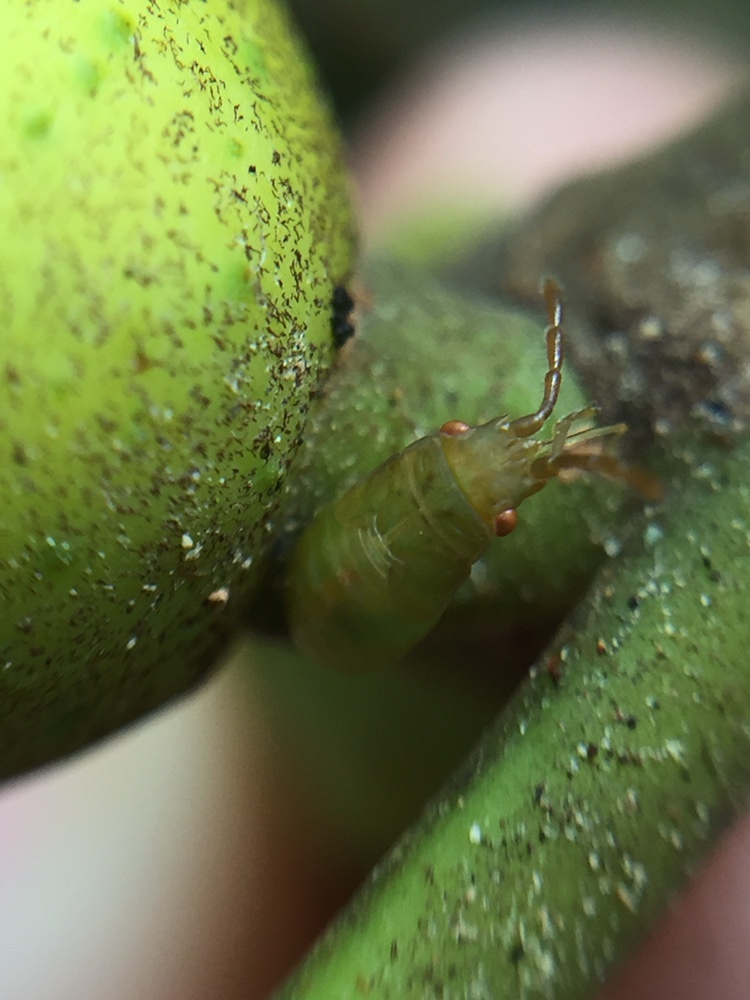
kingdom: Animalia
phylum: Arthropoda
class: Insecta
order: Hemiptera
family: Meschiidae
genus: Meschia
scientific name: Meschia barrowensis
